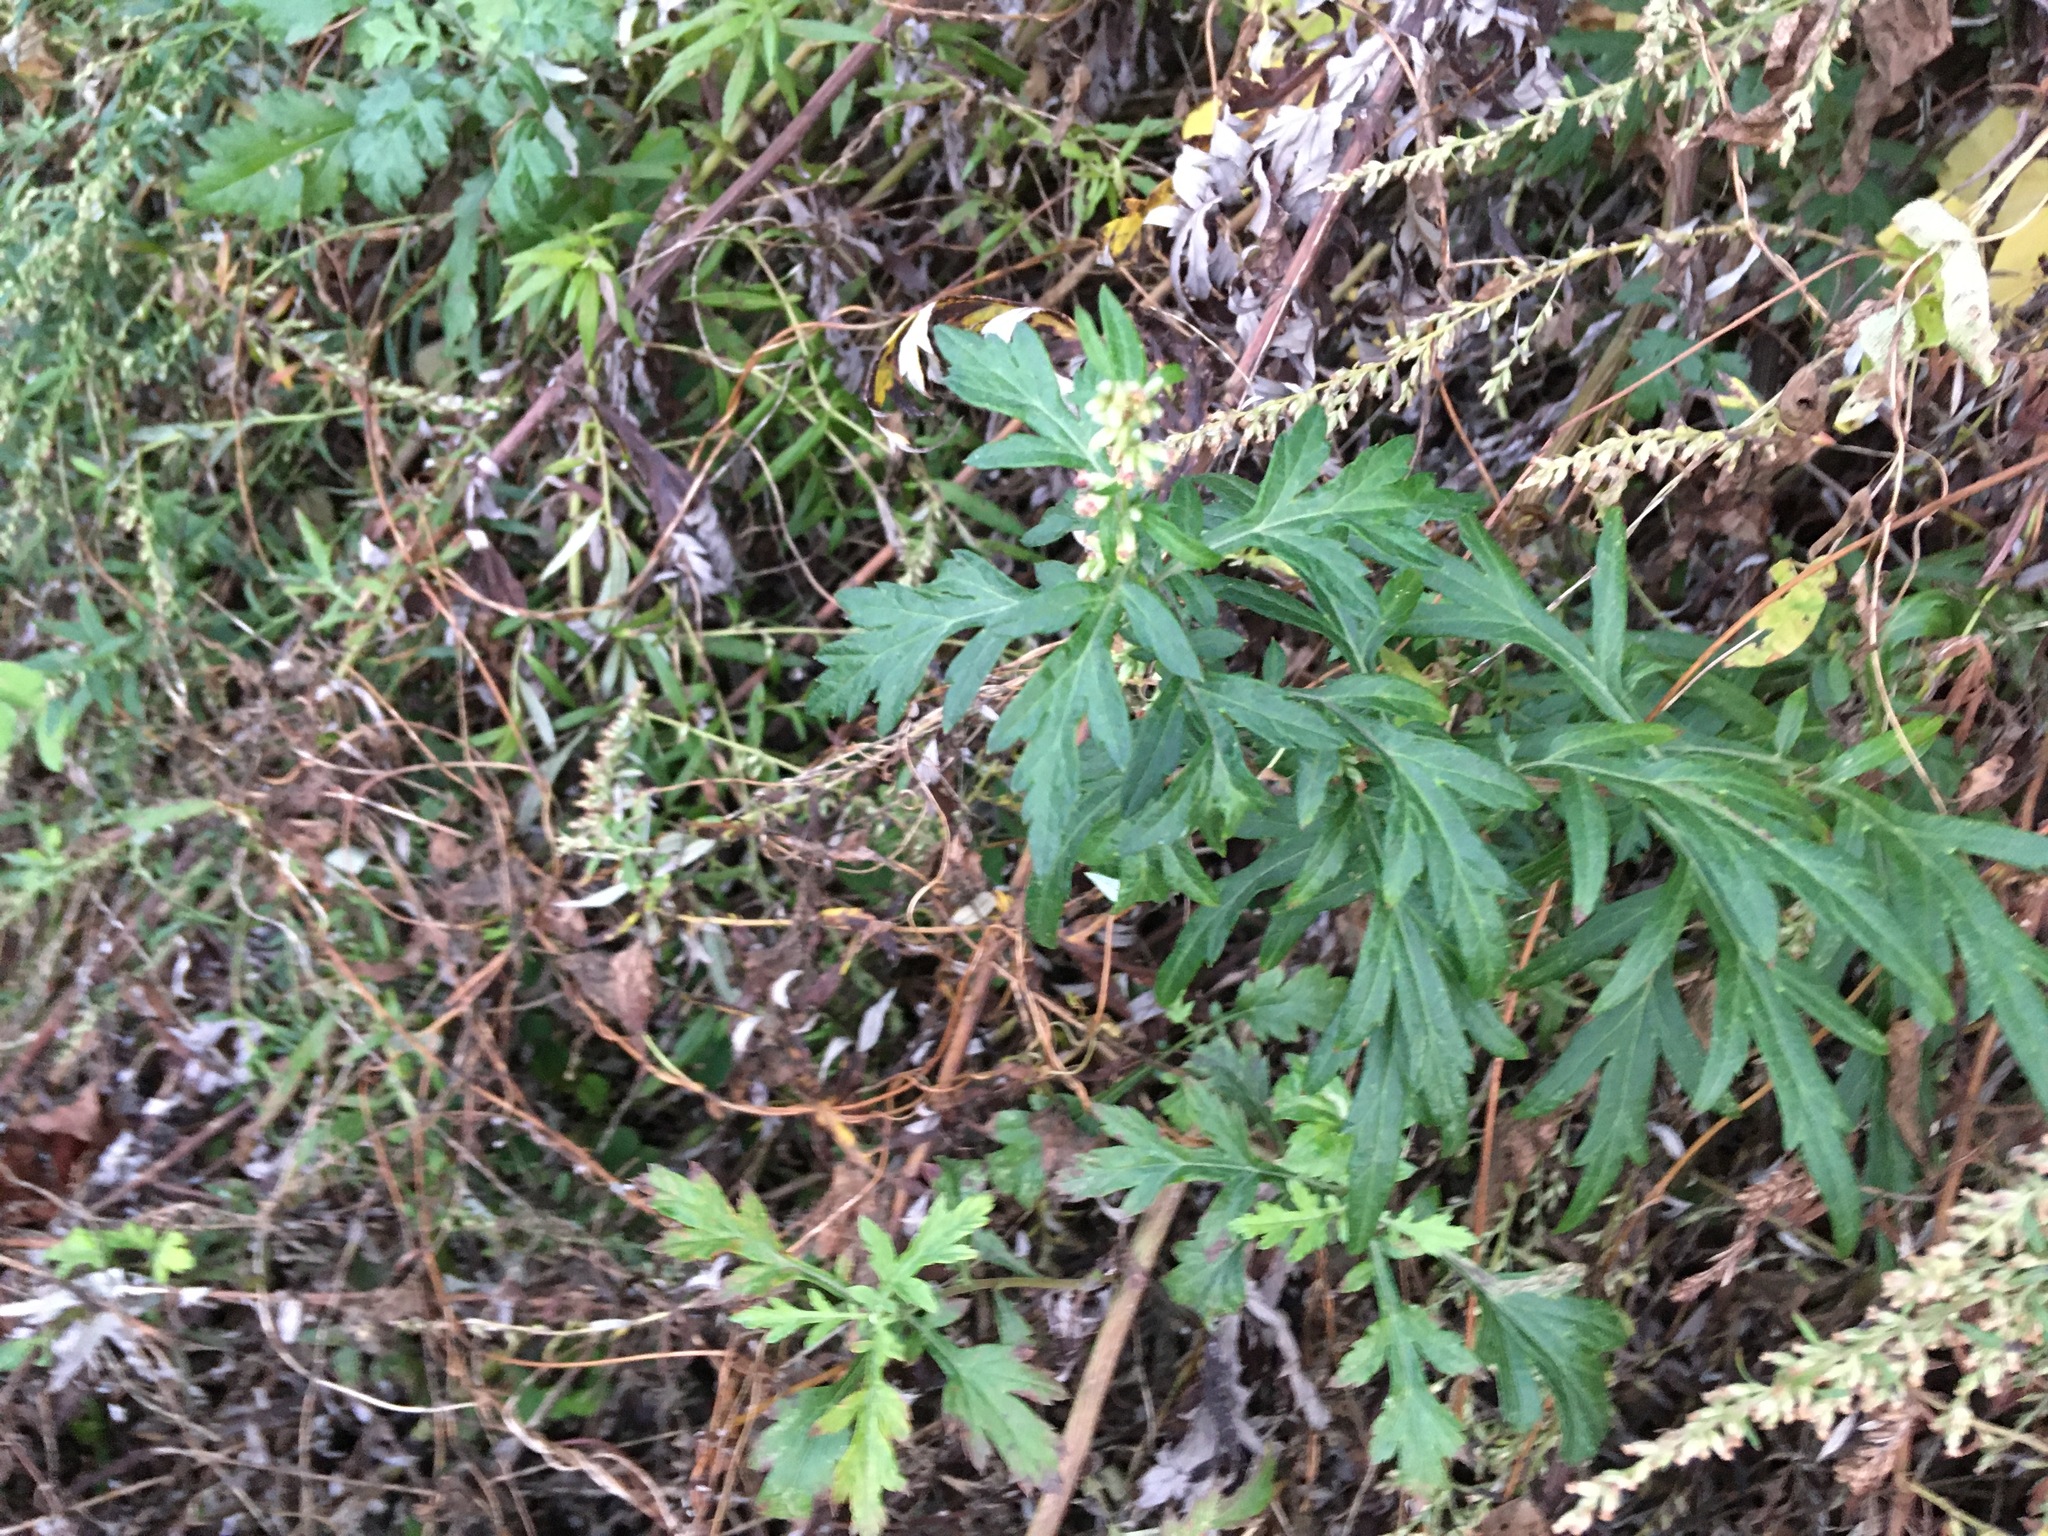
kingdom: Plantae
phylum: Tracheophyta
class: Magnoliopsida
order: Asterales
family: Asteraceae
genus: Artemisia
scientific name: Artemisia vulgaris
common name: Mugwort
